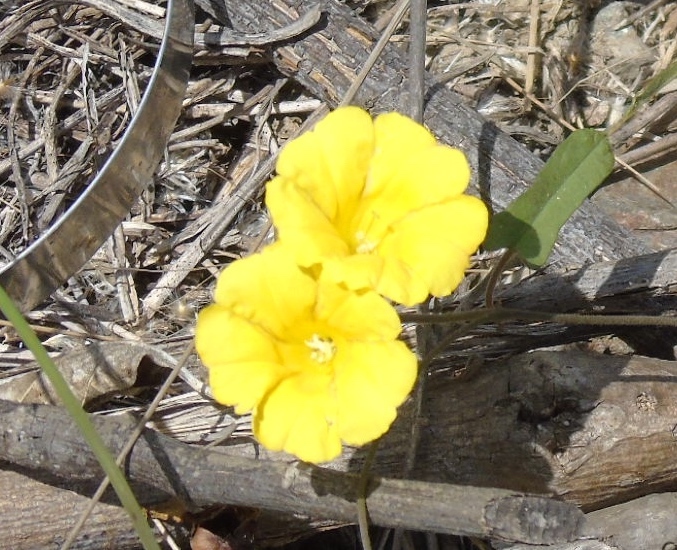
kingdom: Plantae
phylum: Tracheophyta
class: Magnoliopsida
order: Solanales
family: Convolvulaceae
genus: Camonea
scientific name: Camonea umbellata
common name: Hogvine
